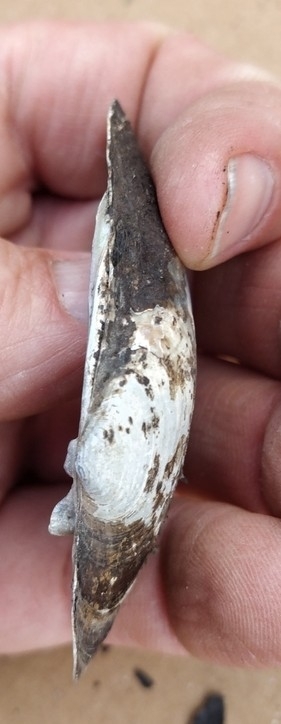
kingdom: Animalia
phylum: Mollusca
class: Bivalvia
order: Unionida
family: Unionidae
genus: Lampsilis
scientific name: Lampsilis siliquoidea
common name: Fatmucket
